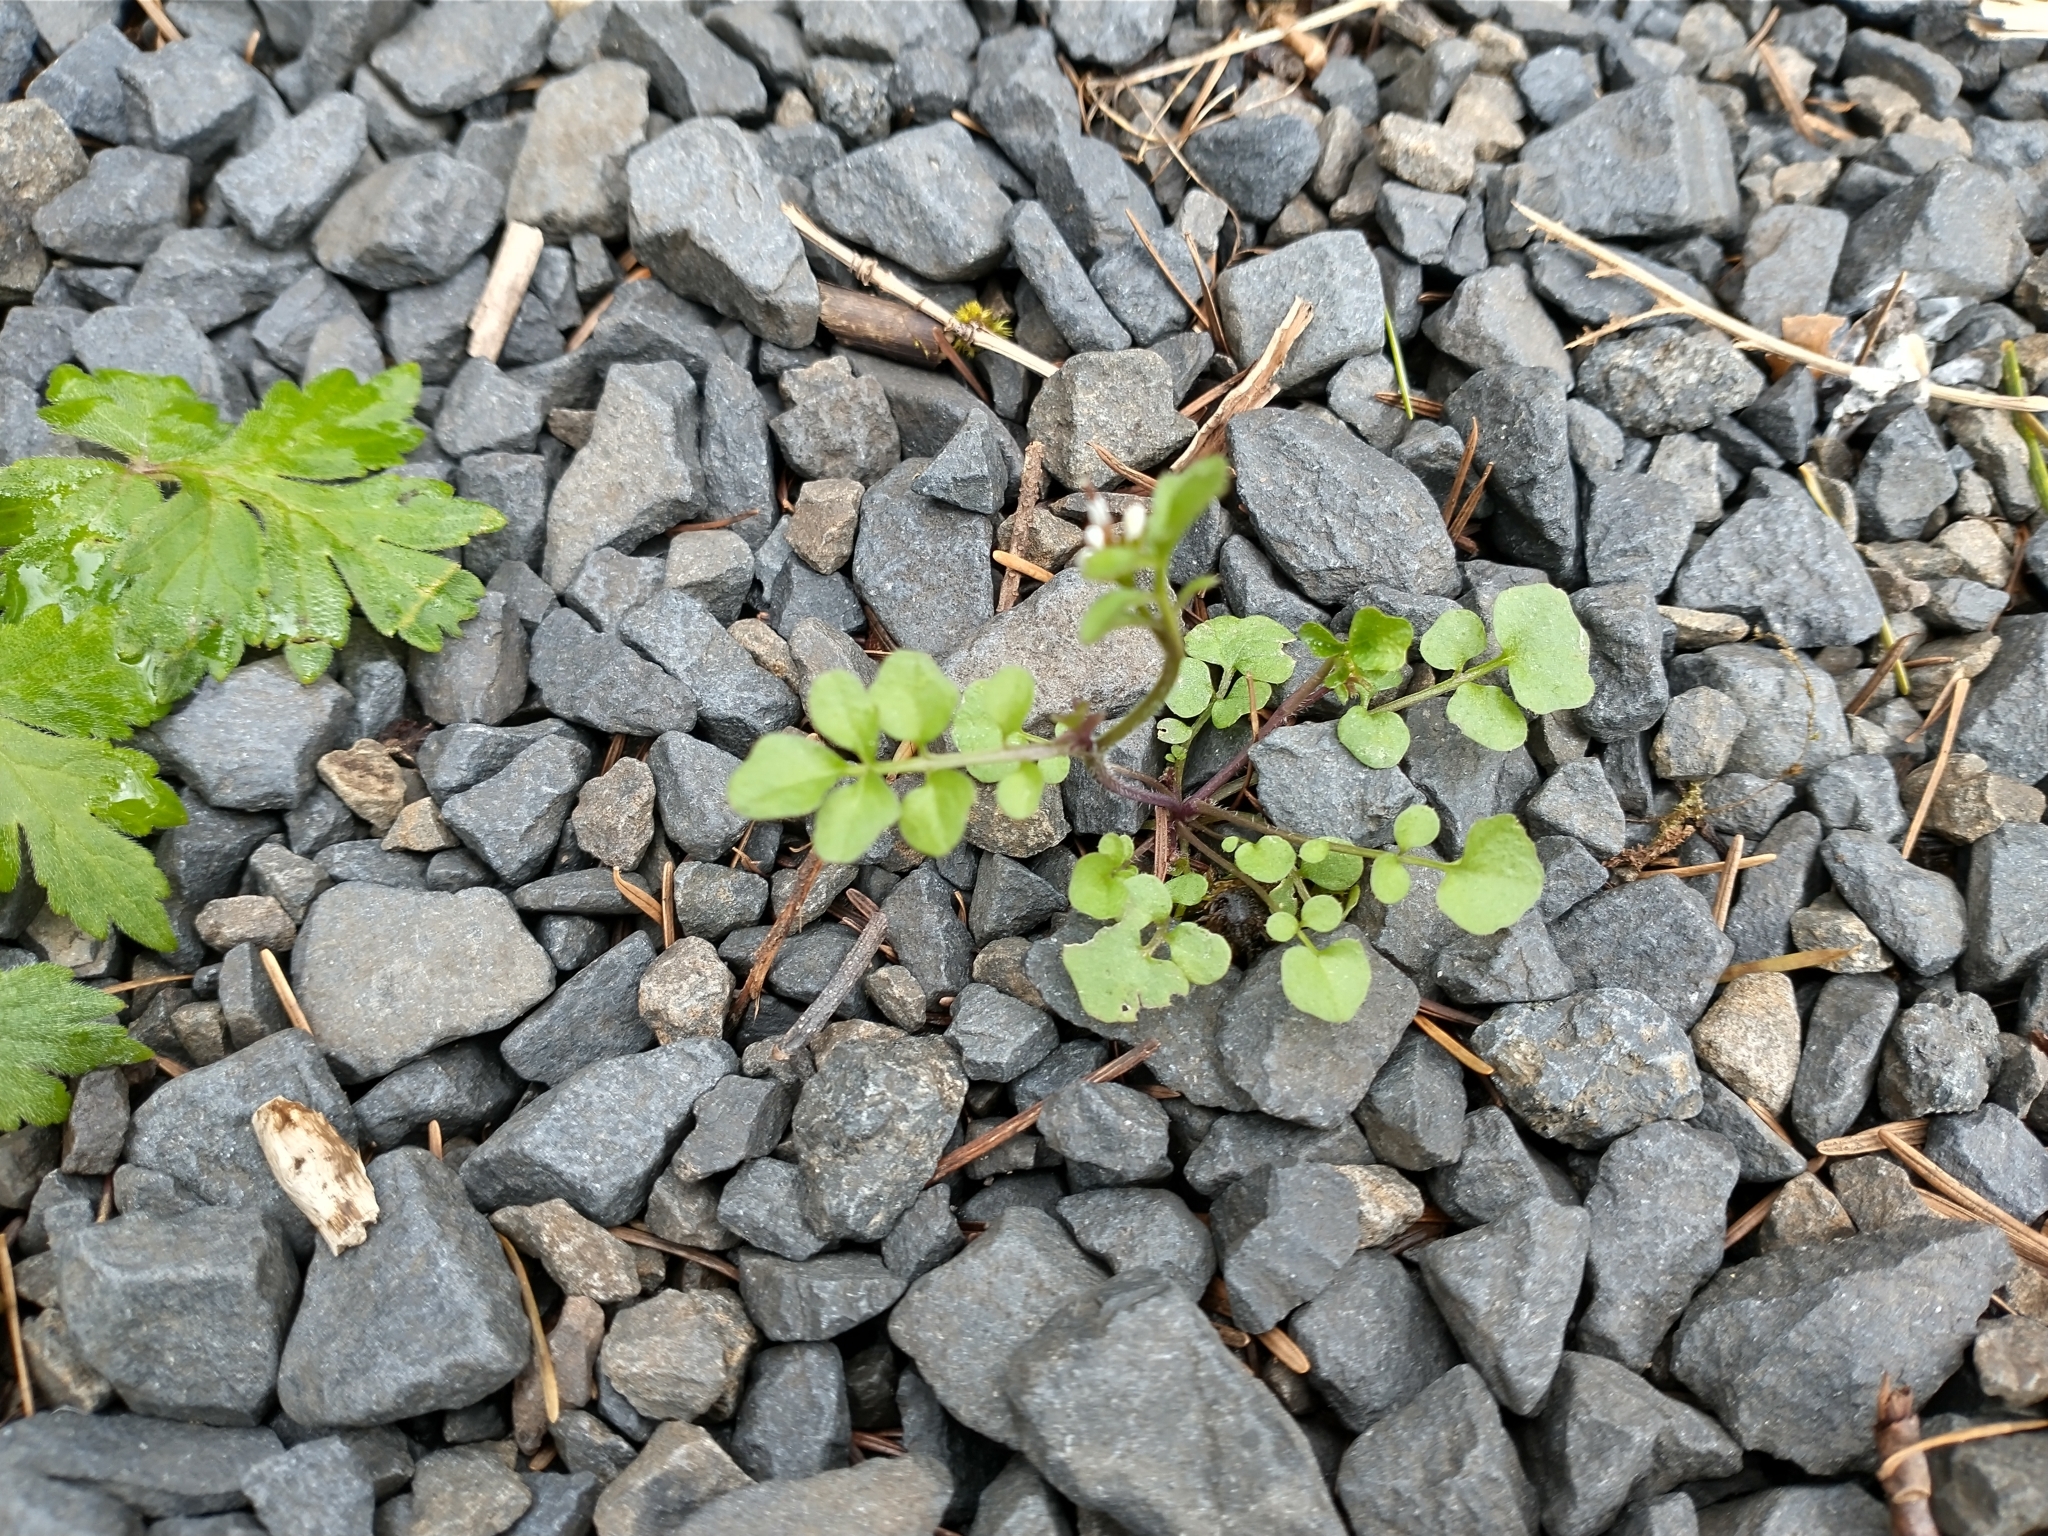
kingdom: Plantae
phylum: Tracheophyta
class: Magnoliopsida
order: Brassicales
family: Brassicaceae
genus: Cardamine
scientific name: Cardamine hirsuta
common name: Hairy bittercress
